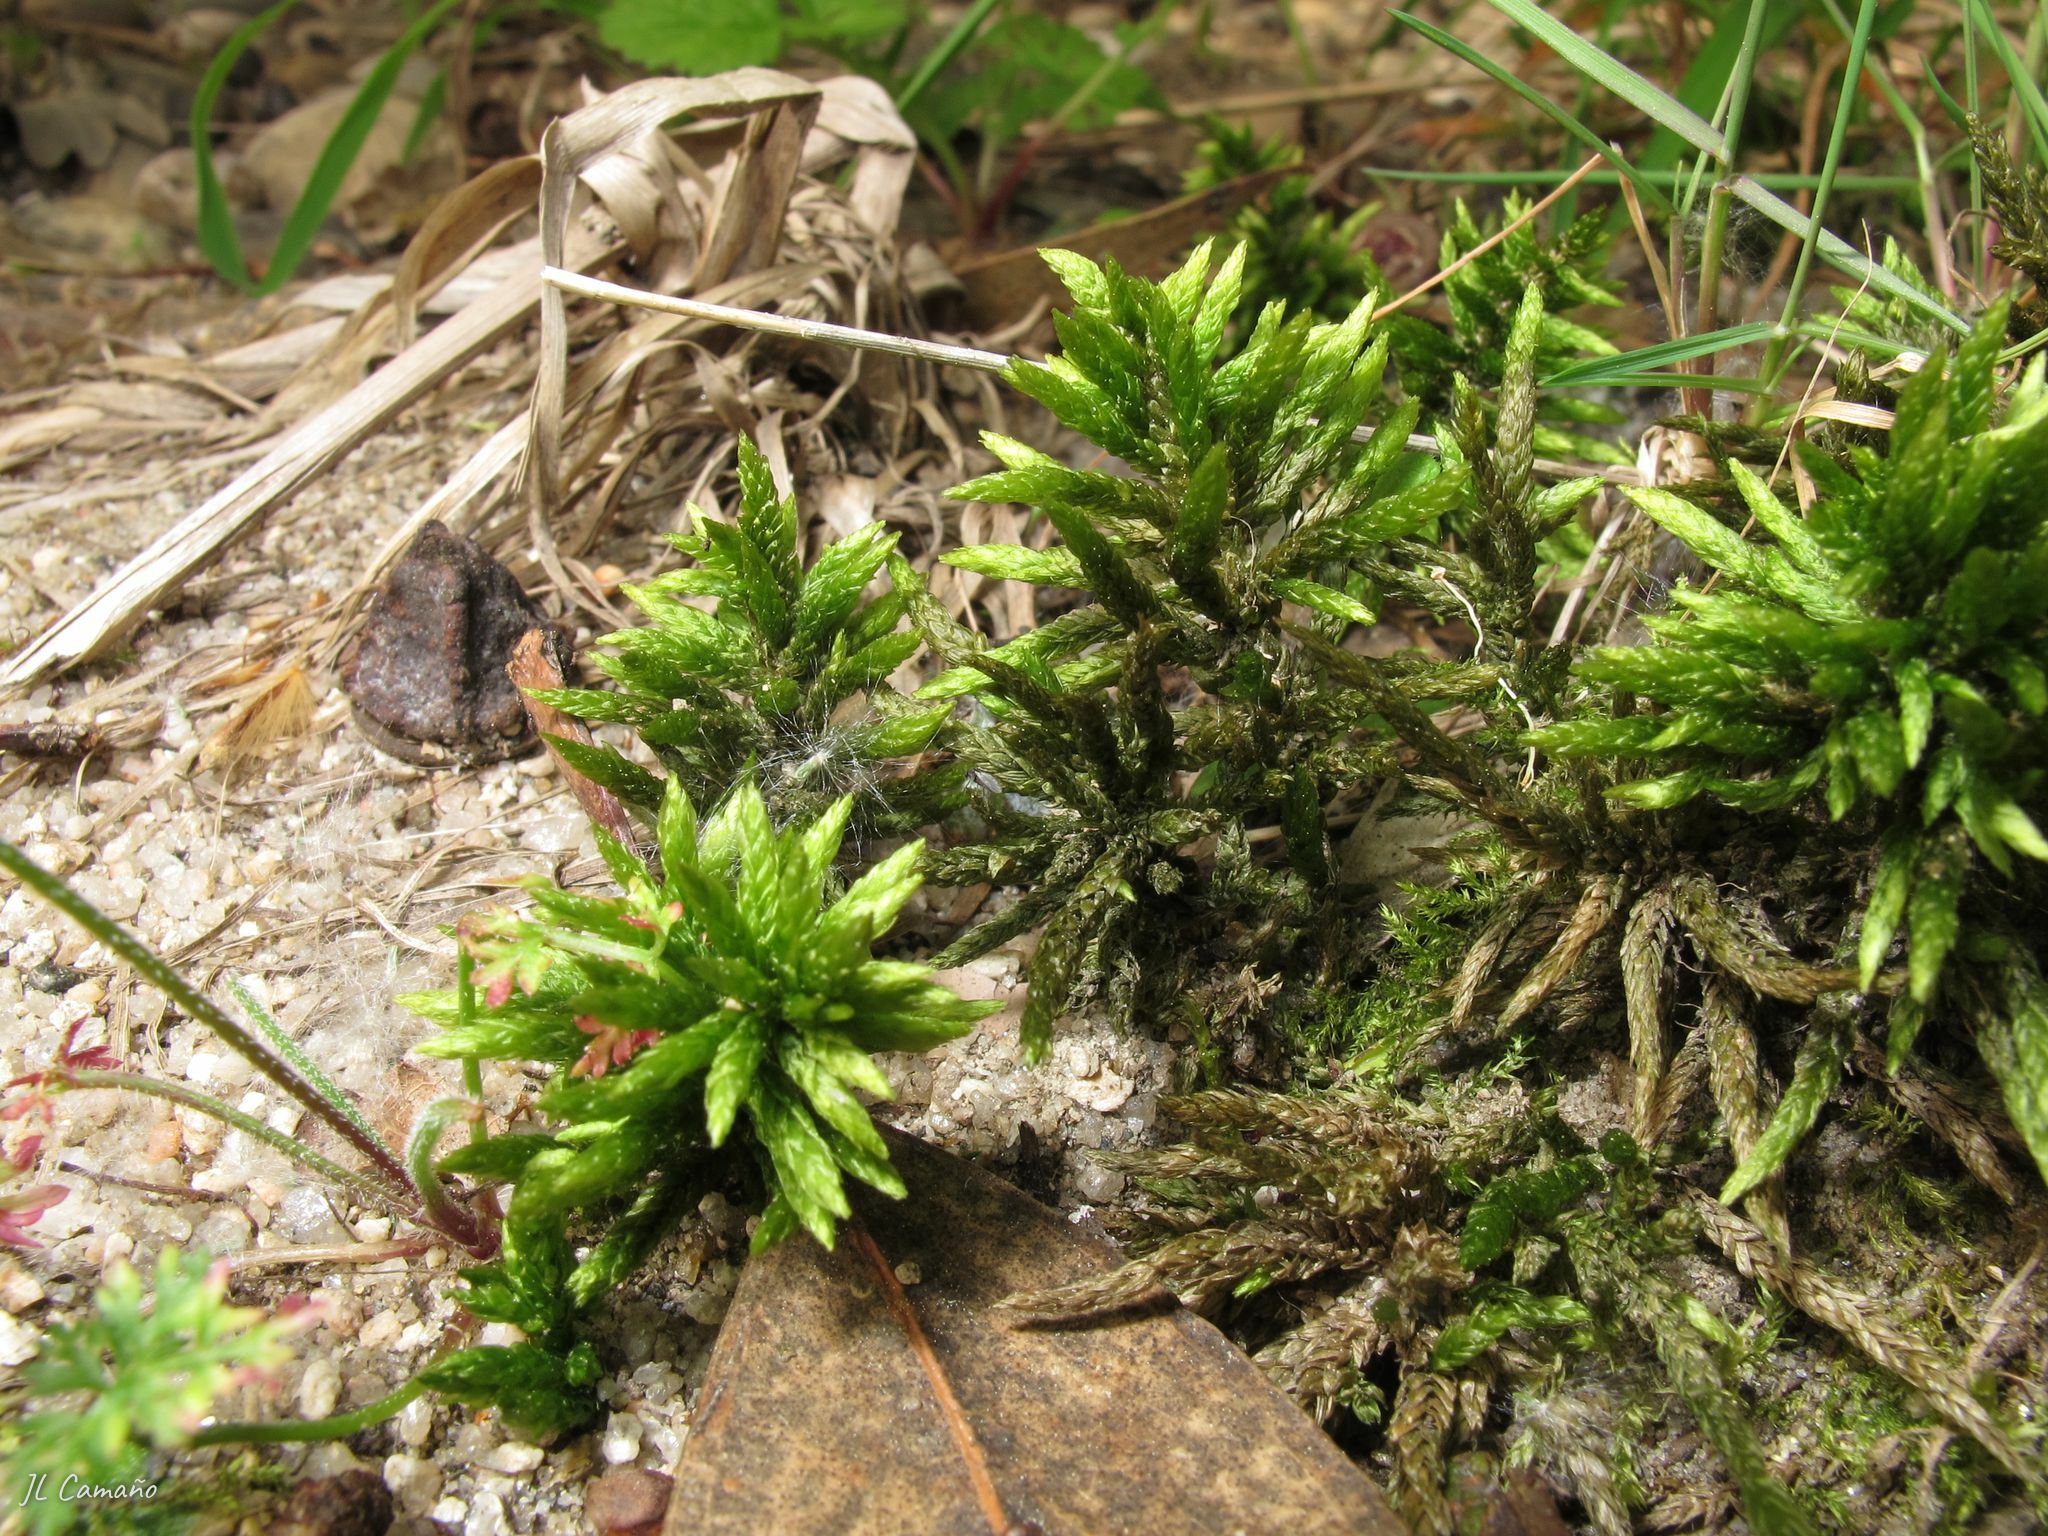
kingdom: Plantae
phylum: Bryophyta
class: Bryopsida
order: Hypnales
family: Climaciaceae
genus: Climacium
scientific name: Climacium dendroides
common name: Northern tree moss
